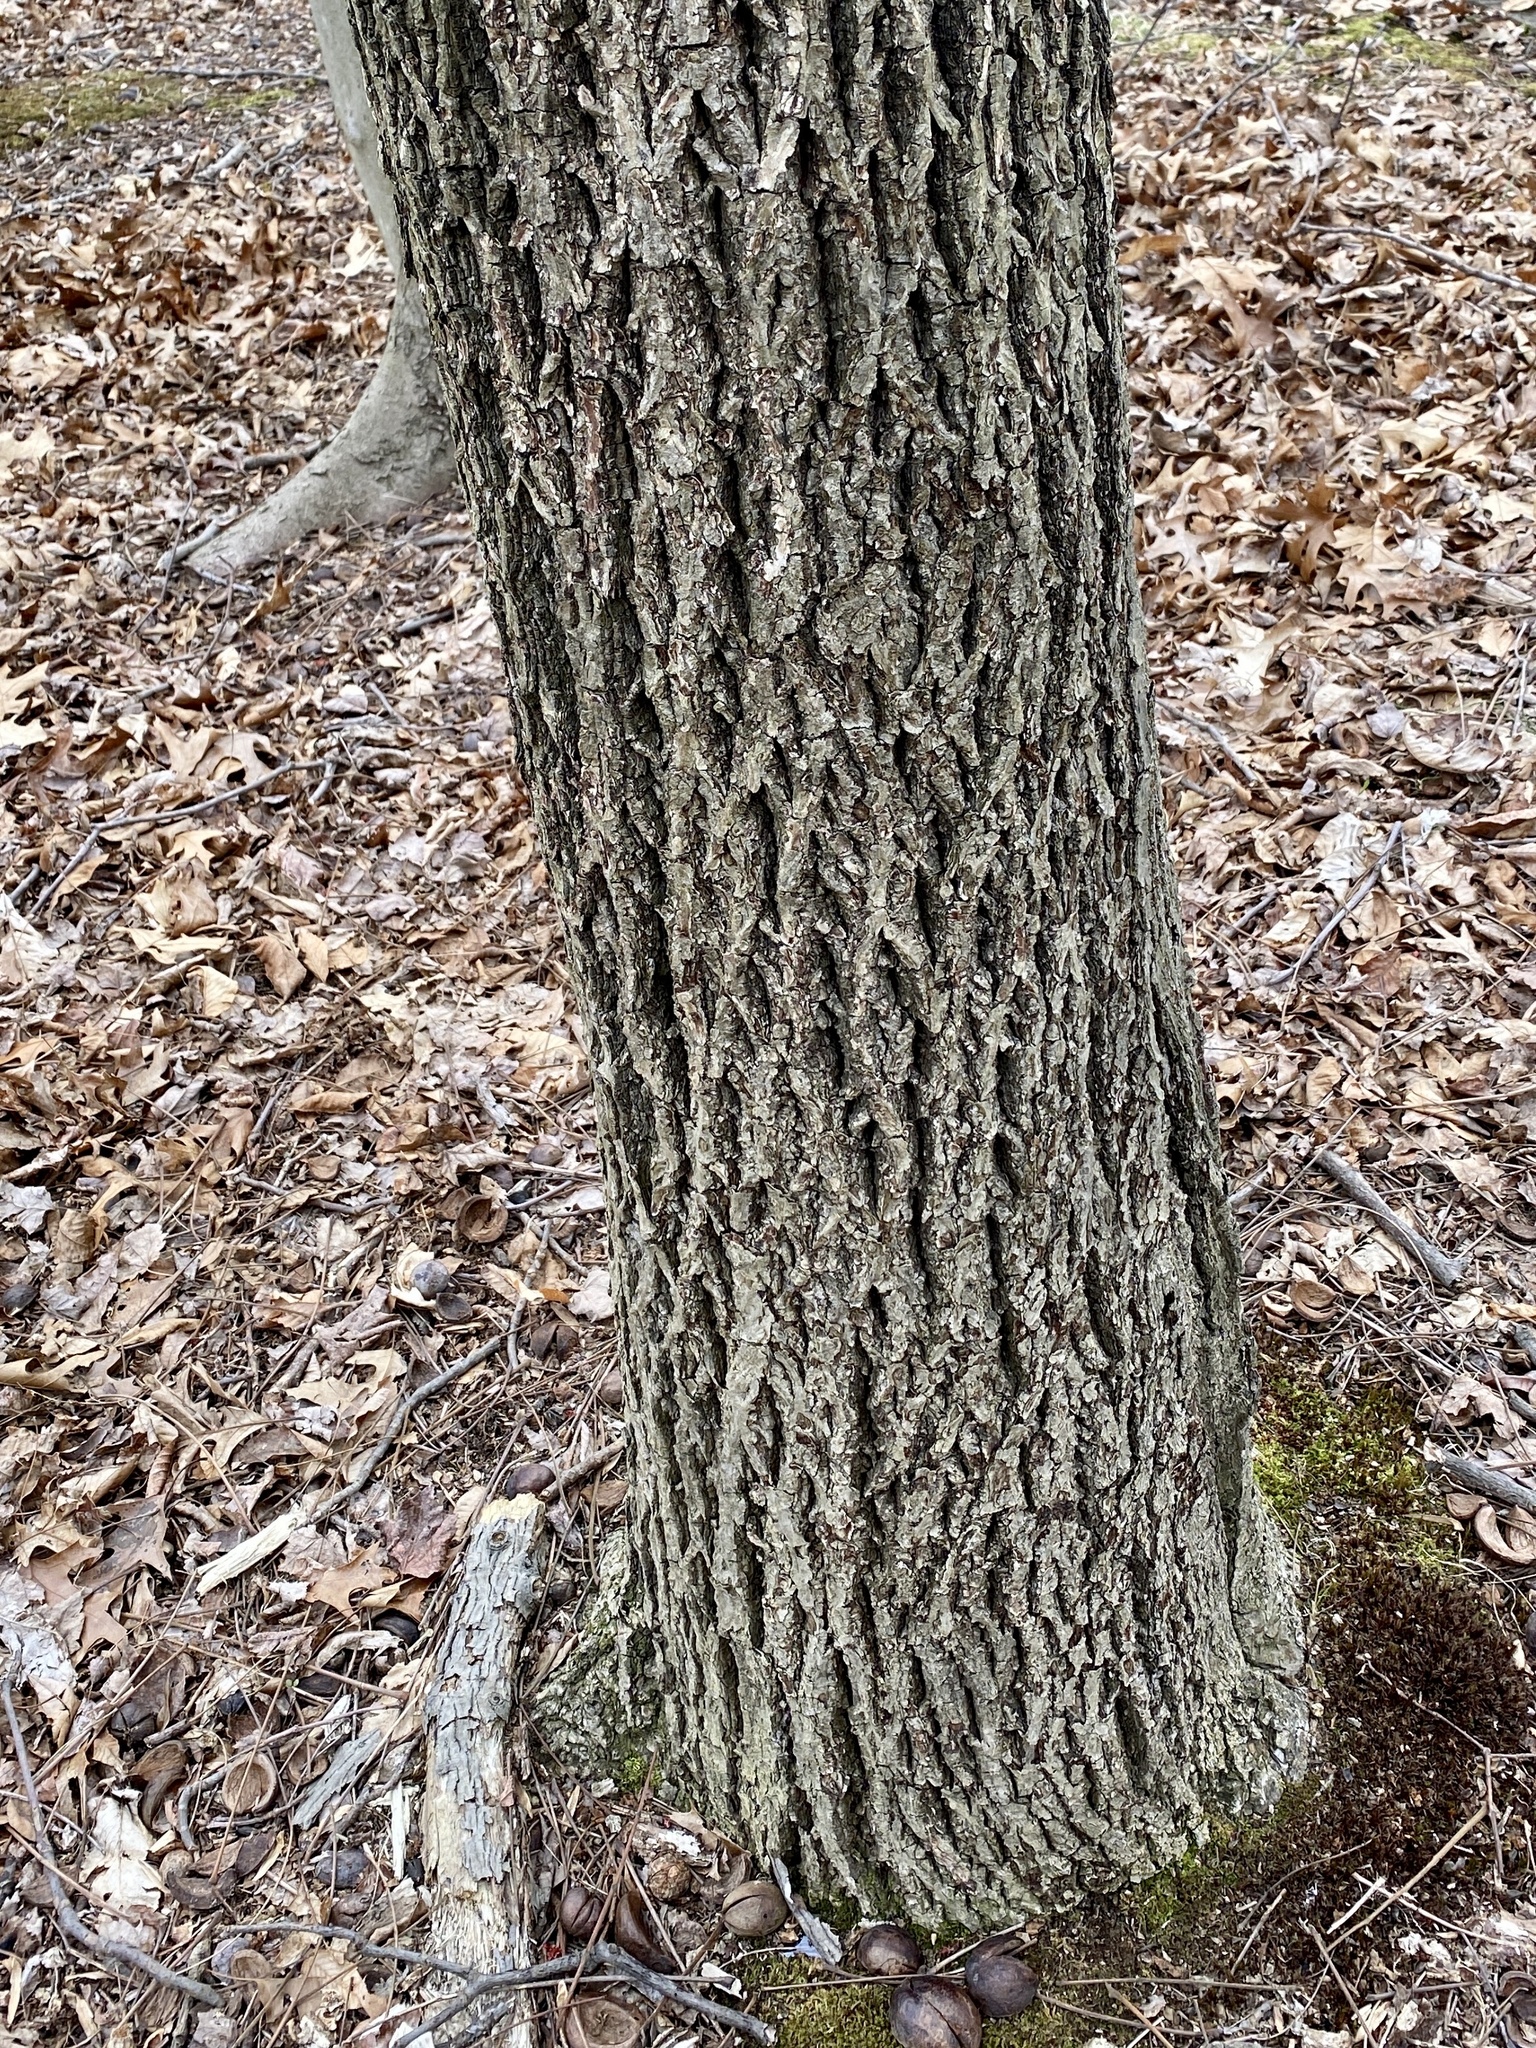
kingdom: Plantae
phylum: Tracheophyta
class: Magnoliopsida
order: Fagales
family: Juglandaceae
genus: Carya
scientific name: Carya alba
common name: Mockernut hickory
